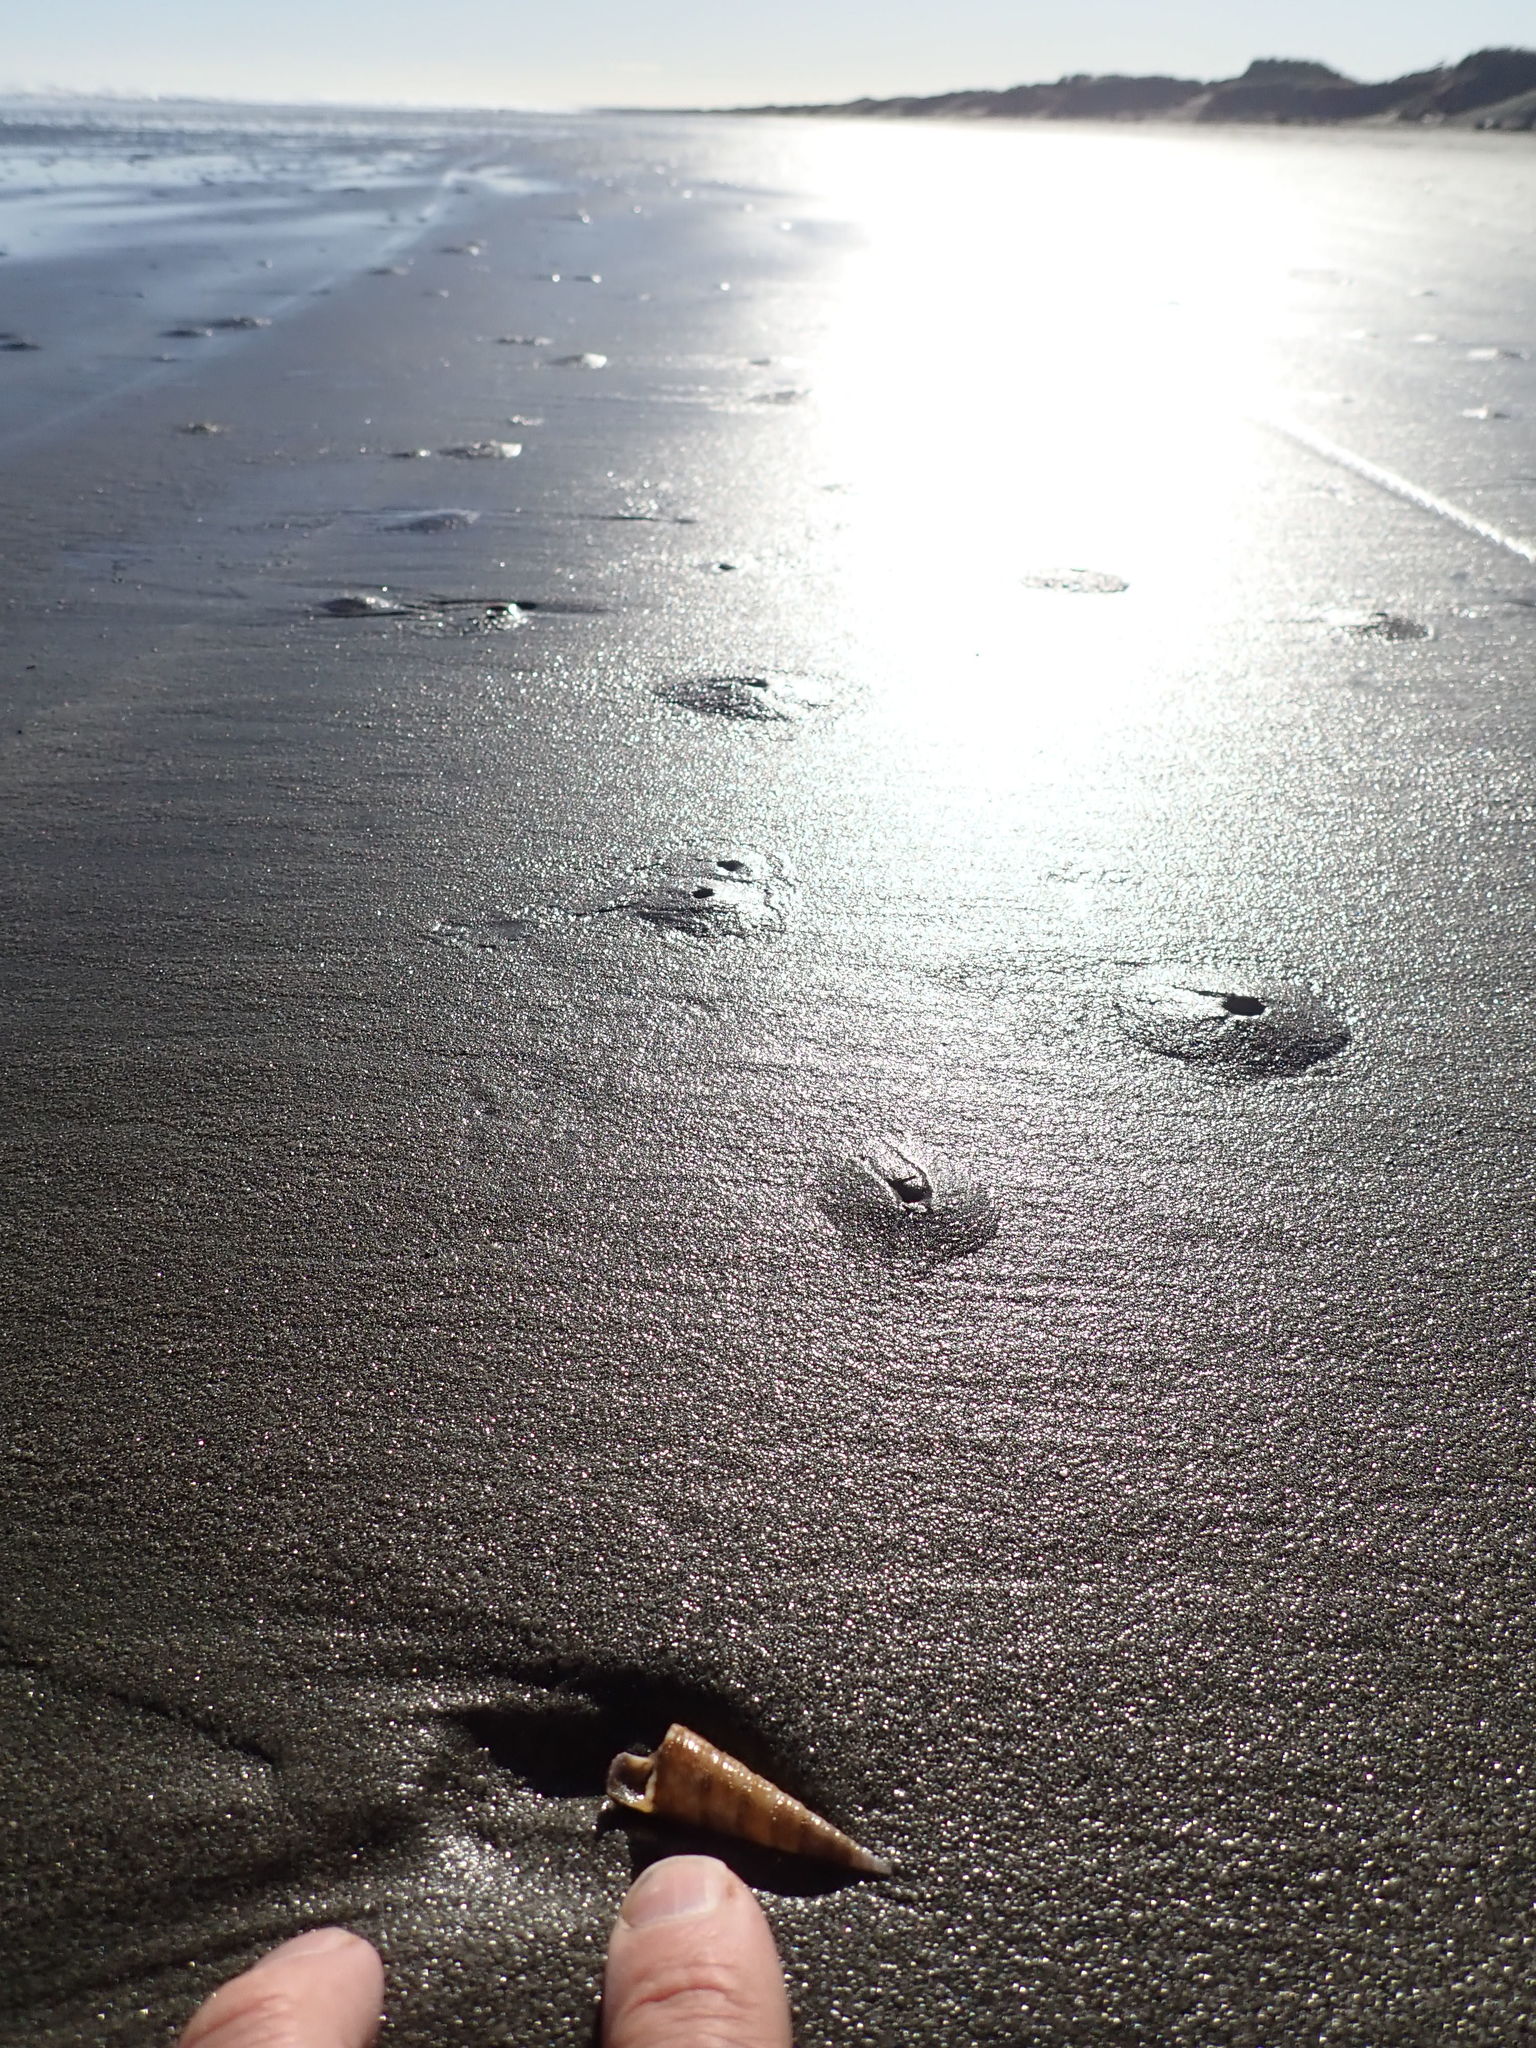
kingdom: Animalia
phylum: Mollusca
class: Gastropoda
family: Turritellidae
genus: Maoricolpus
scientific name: Maoricolpus roseus
